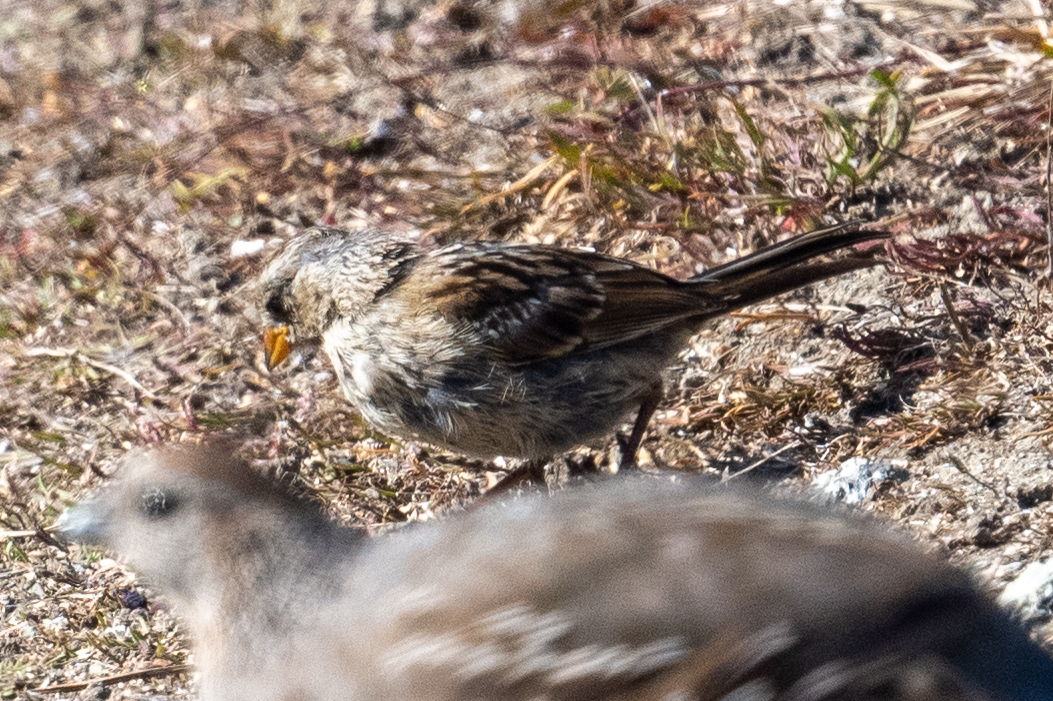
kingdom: Animalia
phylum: Chordata
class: Aves
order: Passeriformes
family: Passerellidae
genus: Zonotrichia
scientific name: Zonotrichia leucophrys
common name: White-crowned sparrow
